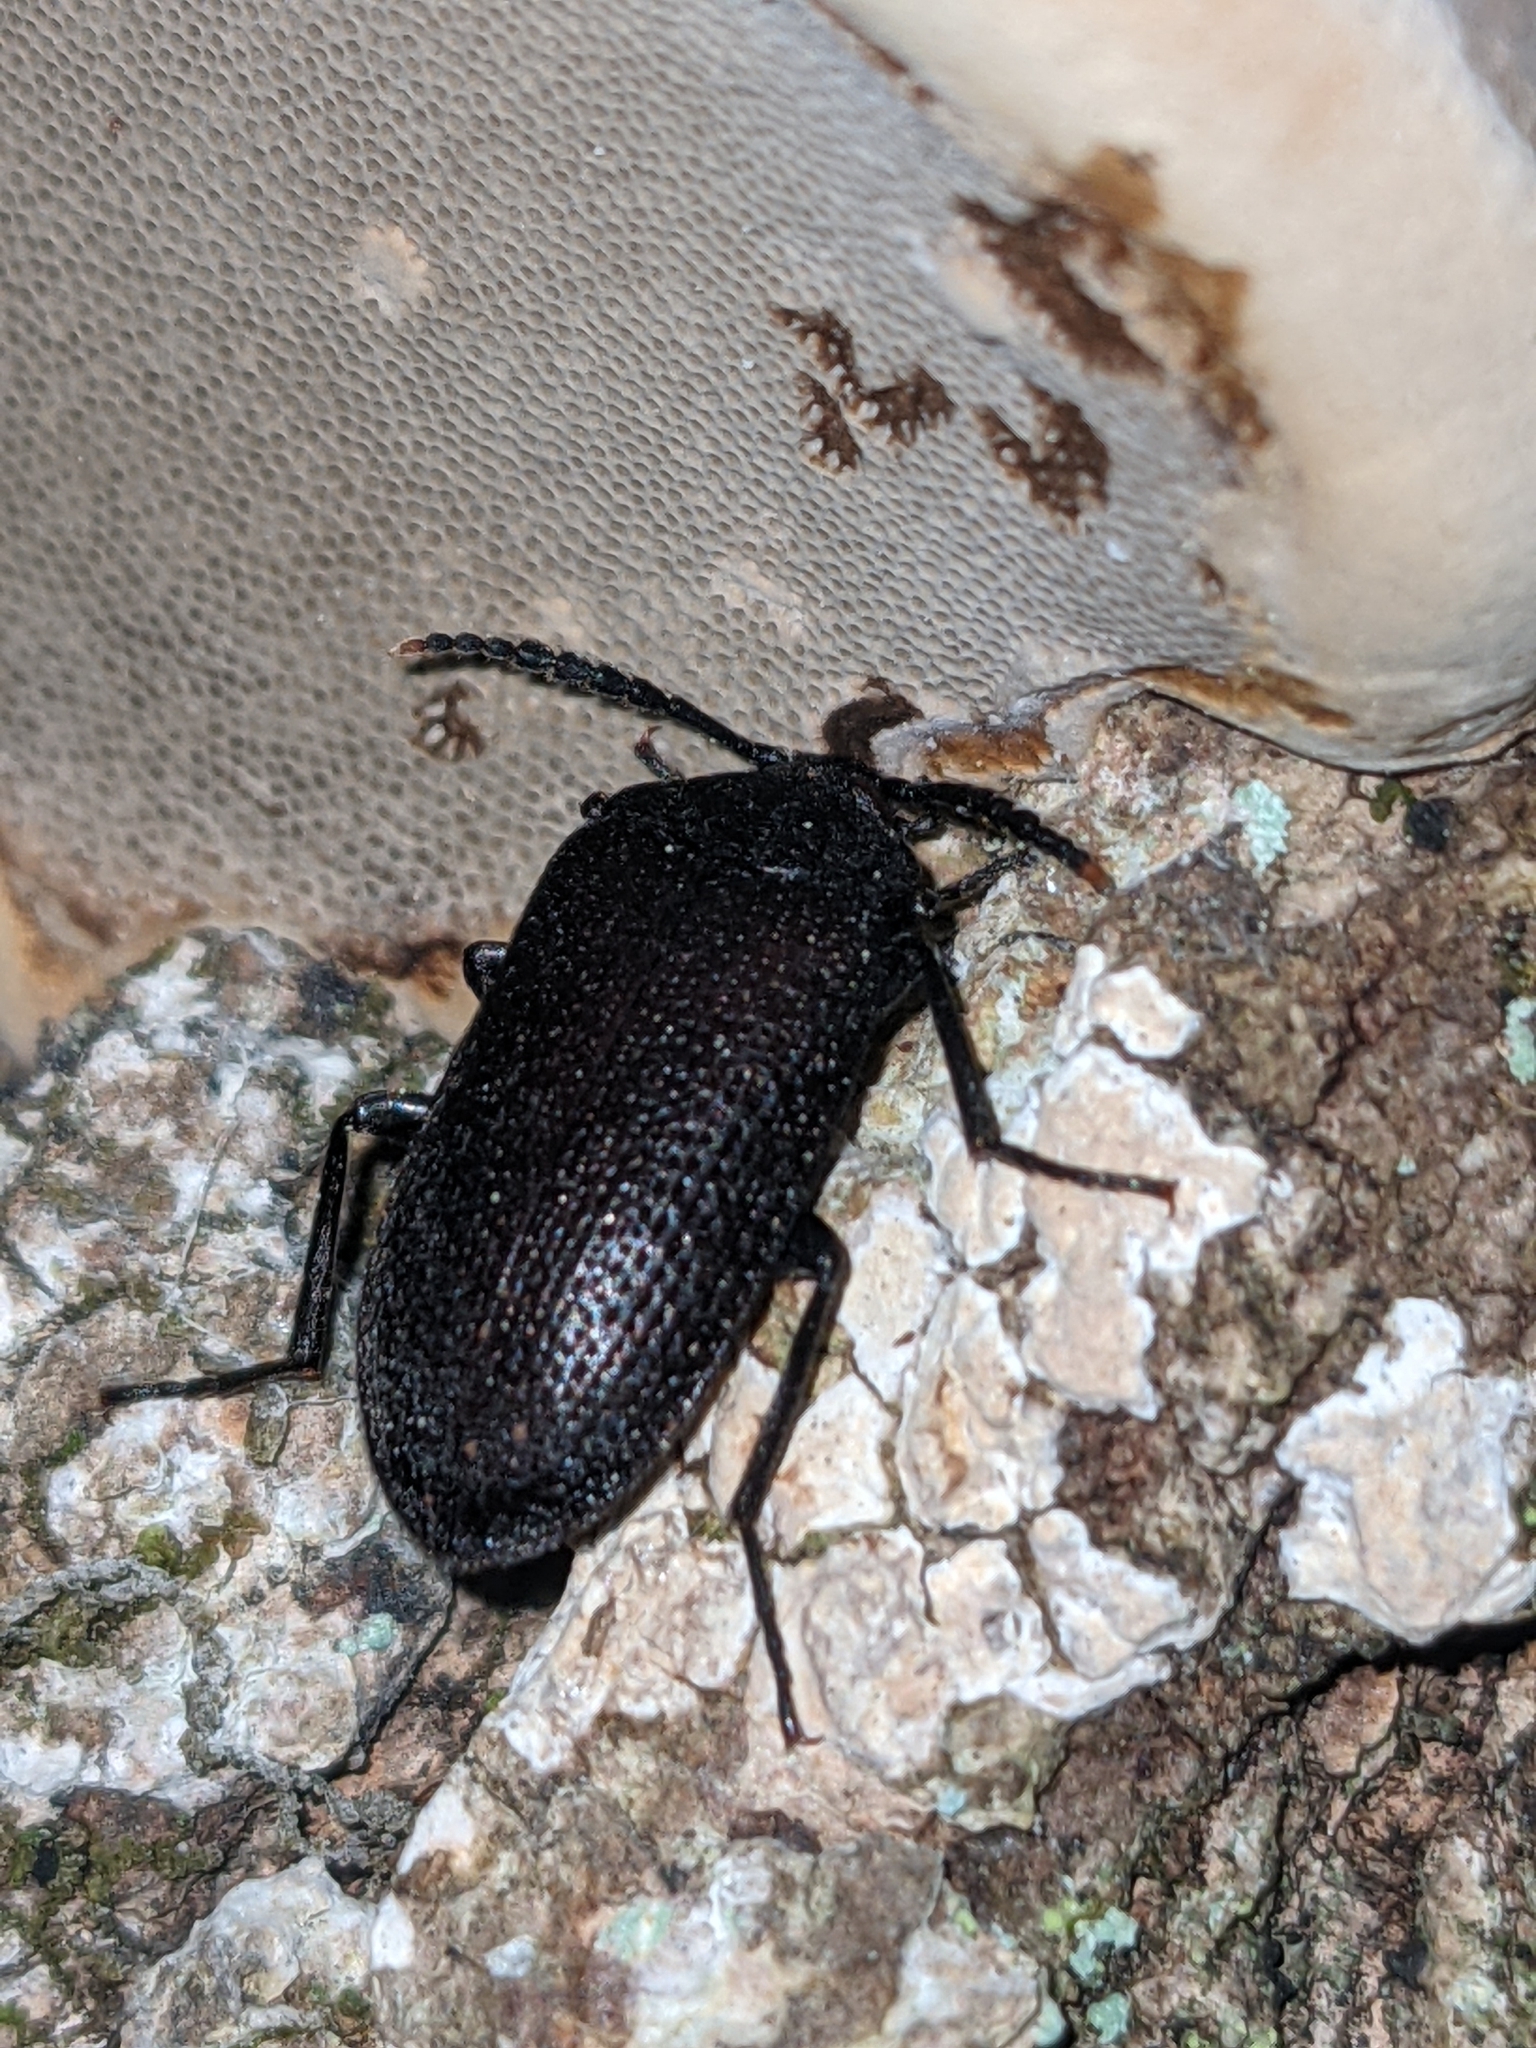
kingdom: Animalia
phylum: Arthropoda
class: Insecta
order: Coleoptera
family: Tetratomidae
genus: Penthe
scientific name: Penthe pimelia
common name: Velvety bark beetle
